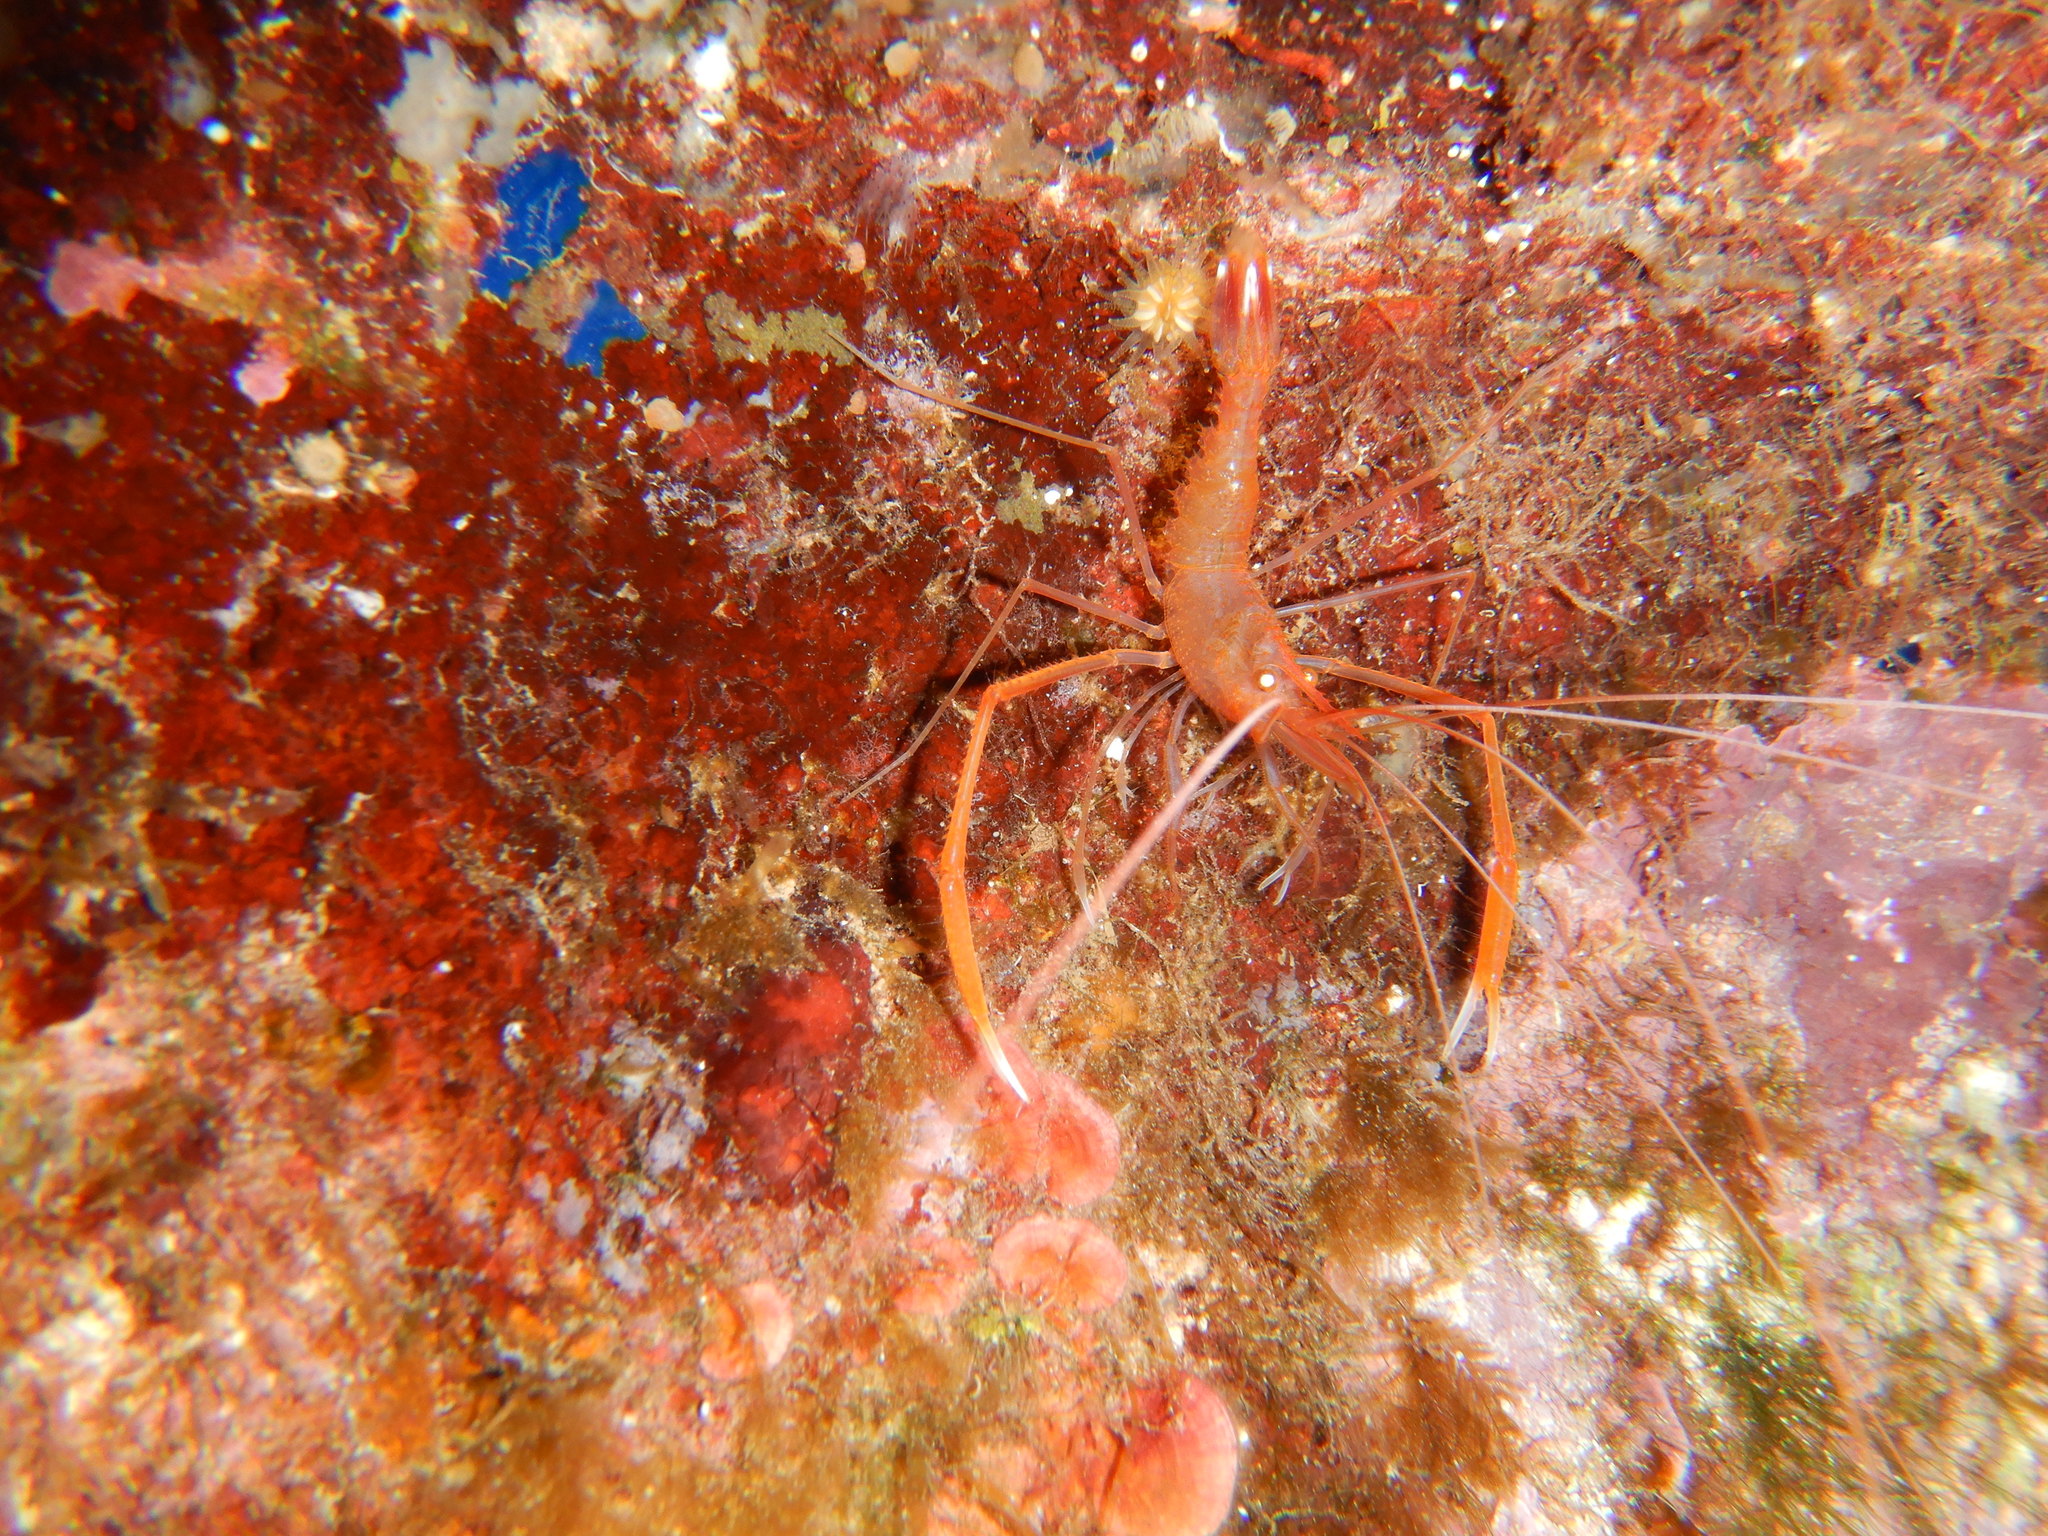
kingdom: Animalia
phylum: Arthropoda
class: Malacostraca
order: Decapoda
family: Stenopodidae
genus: Stenopus
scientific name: Stenopus spinosus
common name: Golden coral shrimp
